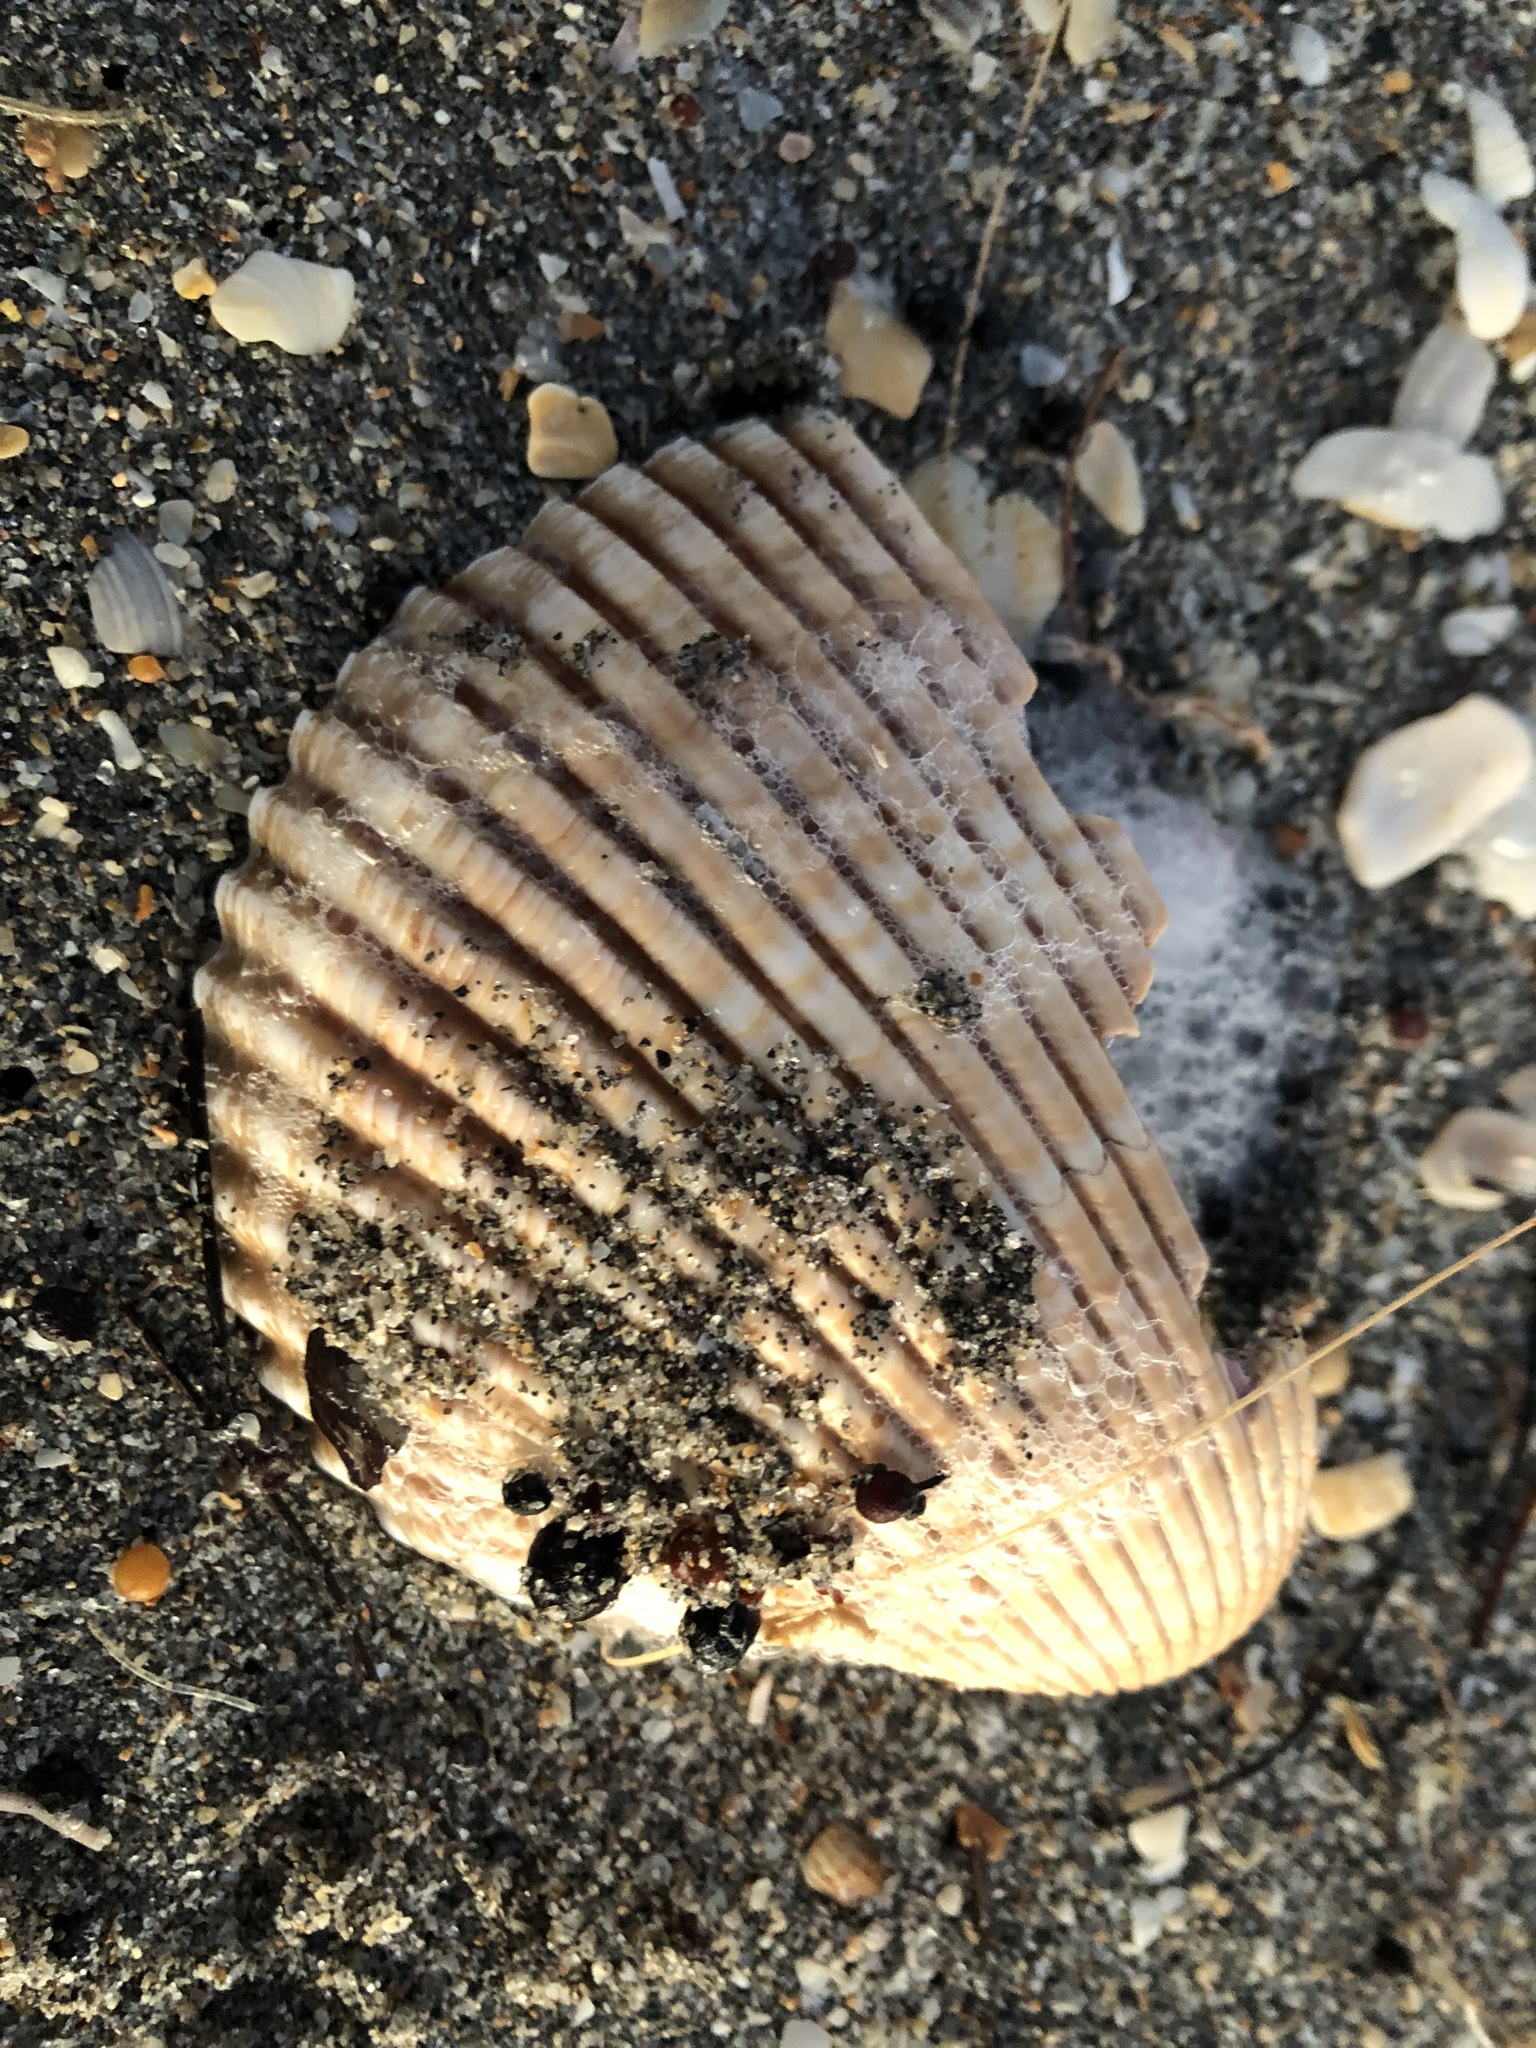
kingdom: Animalia
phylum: Mollusca
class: Bivalvia
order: Cardiida
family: Cardiidae
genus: Dinocardium
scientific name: Dinocardium robustum
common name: Atlantic giant cockle
